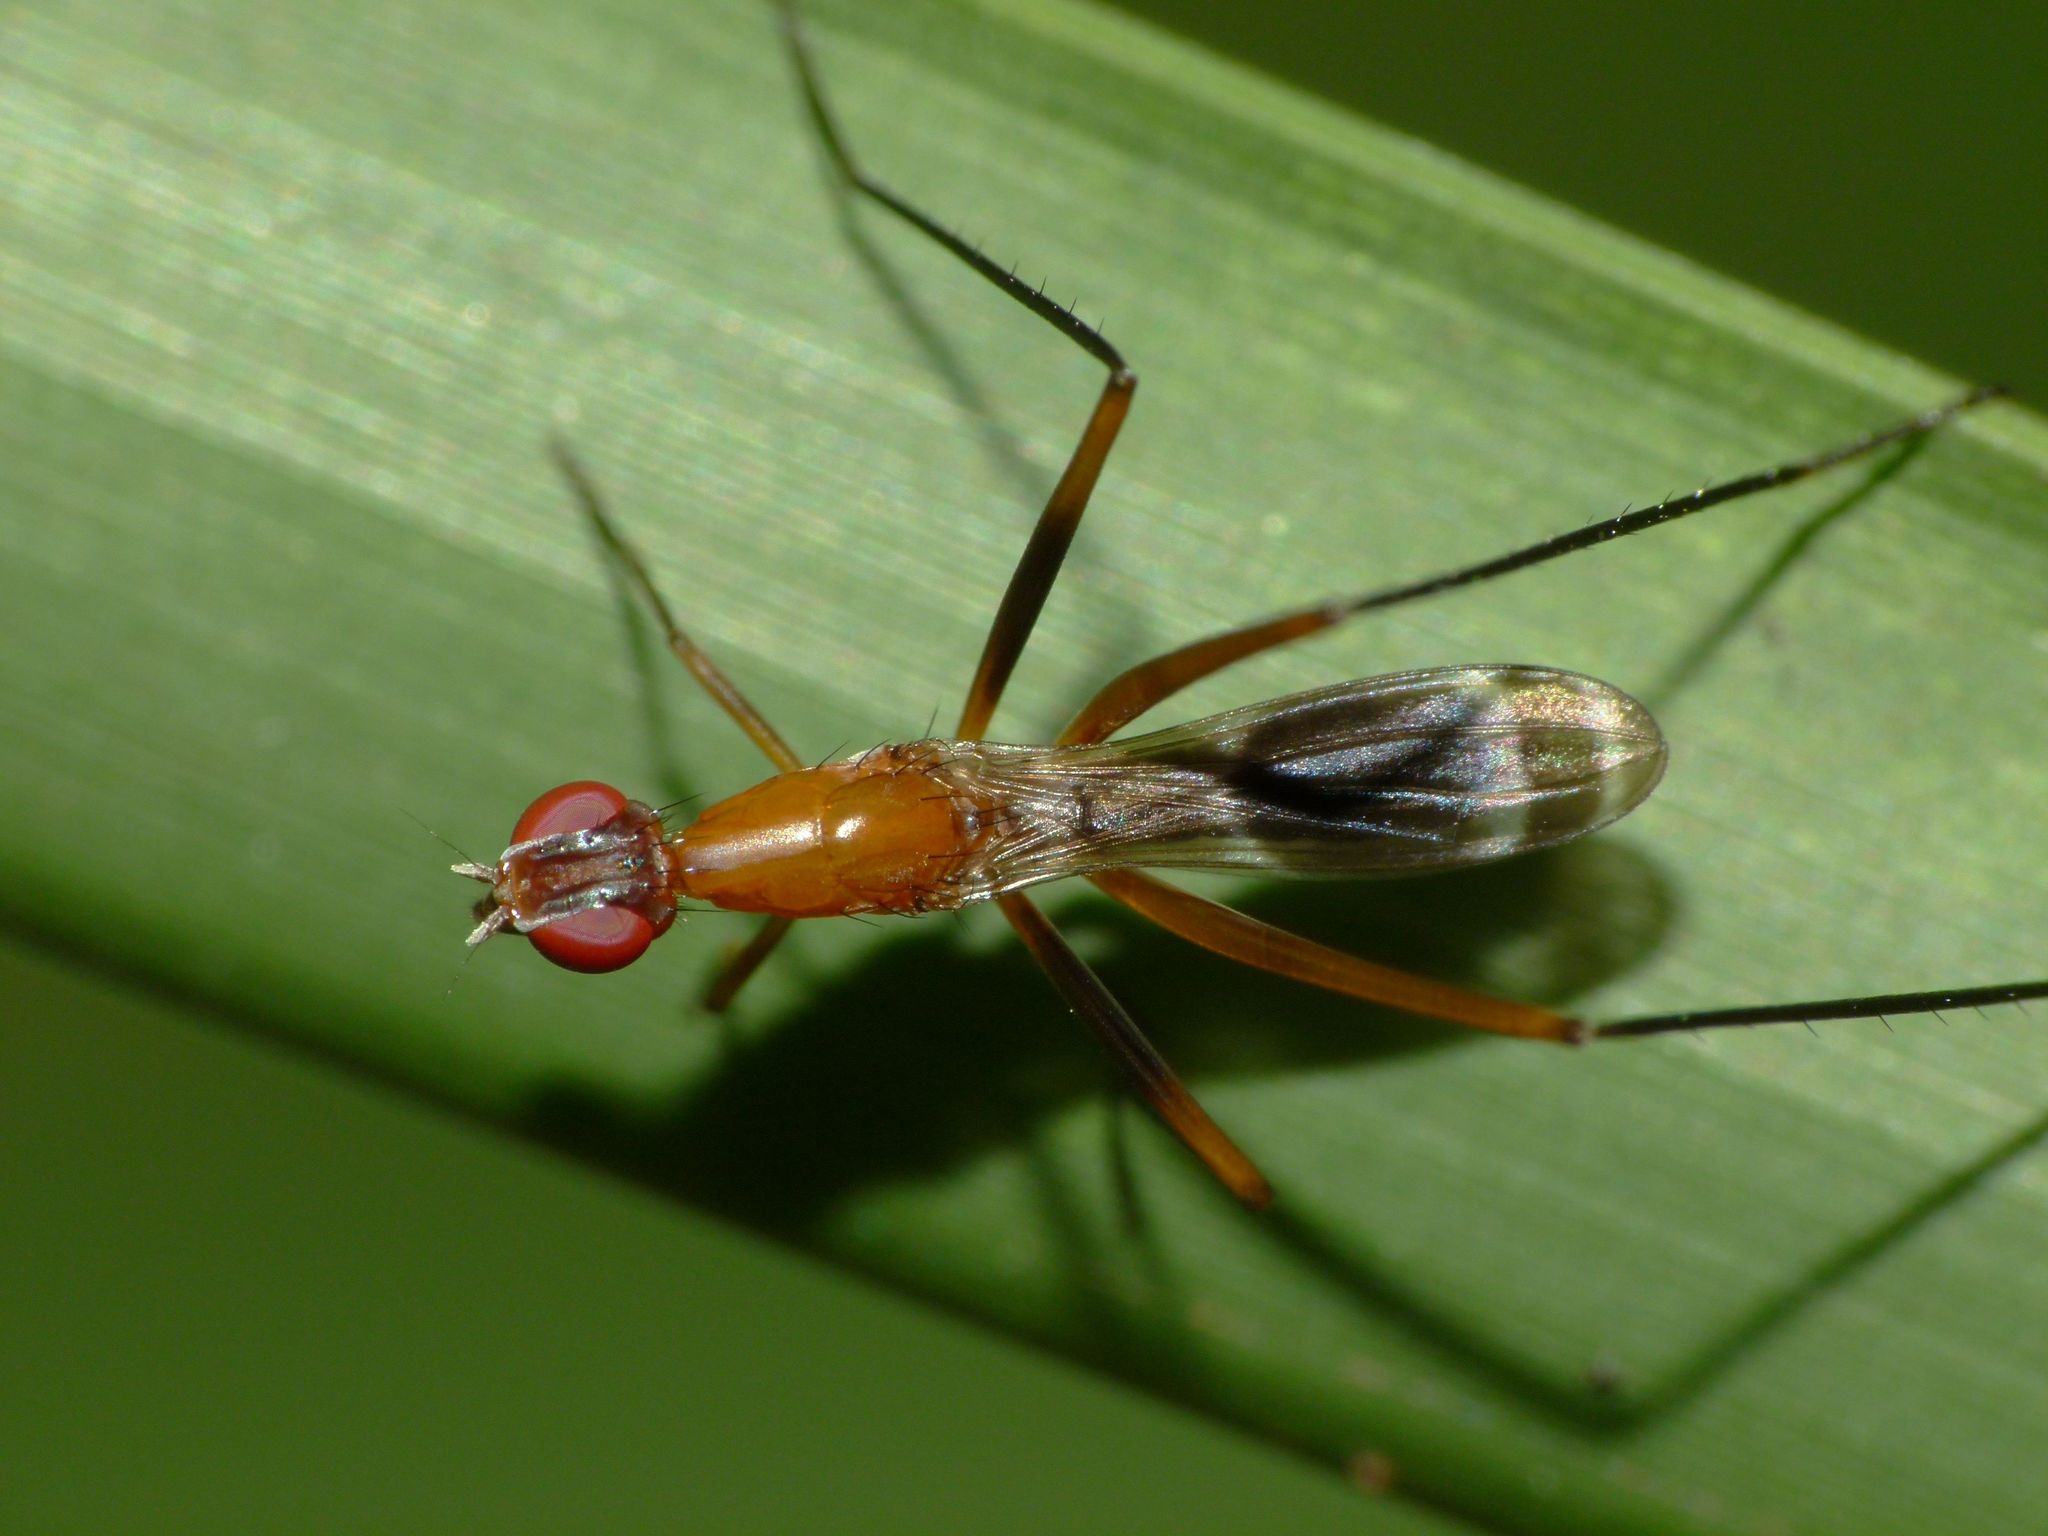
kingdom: Animalia
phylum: Arthropoda
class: Insecta
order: Diptera
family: Micropezidae
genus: Metopochetus
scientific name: Metopochetus freyi
